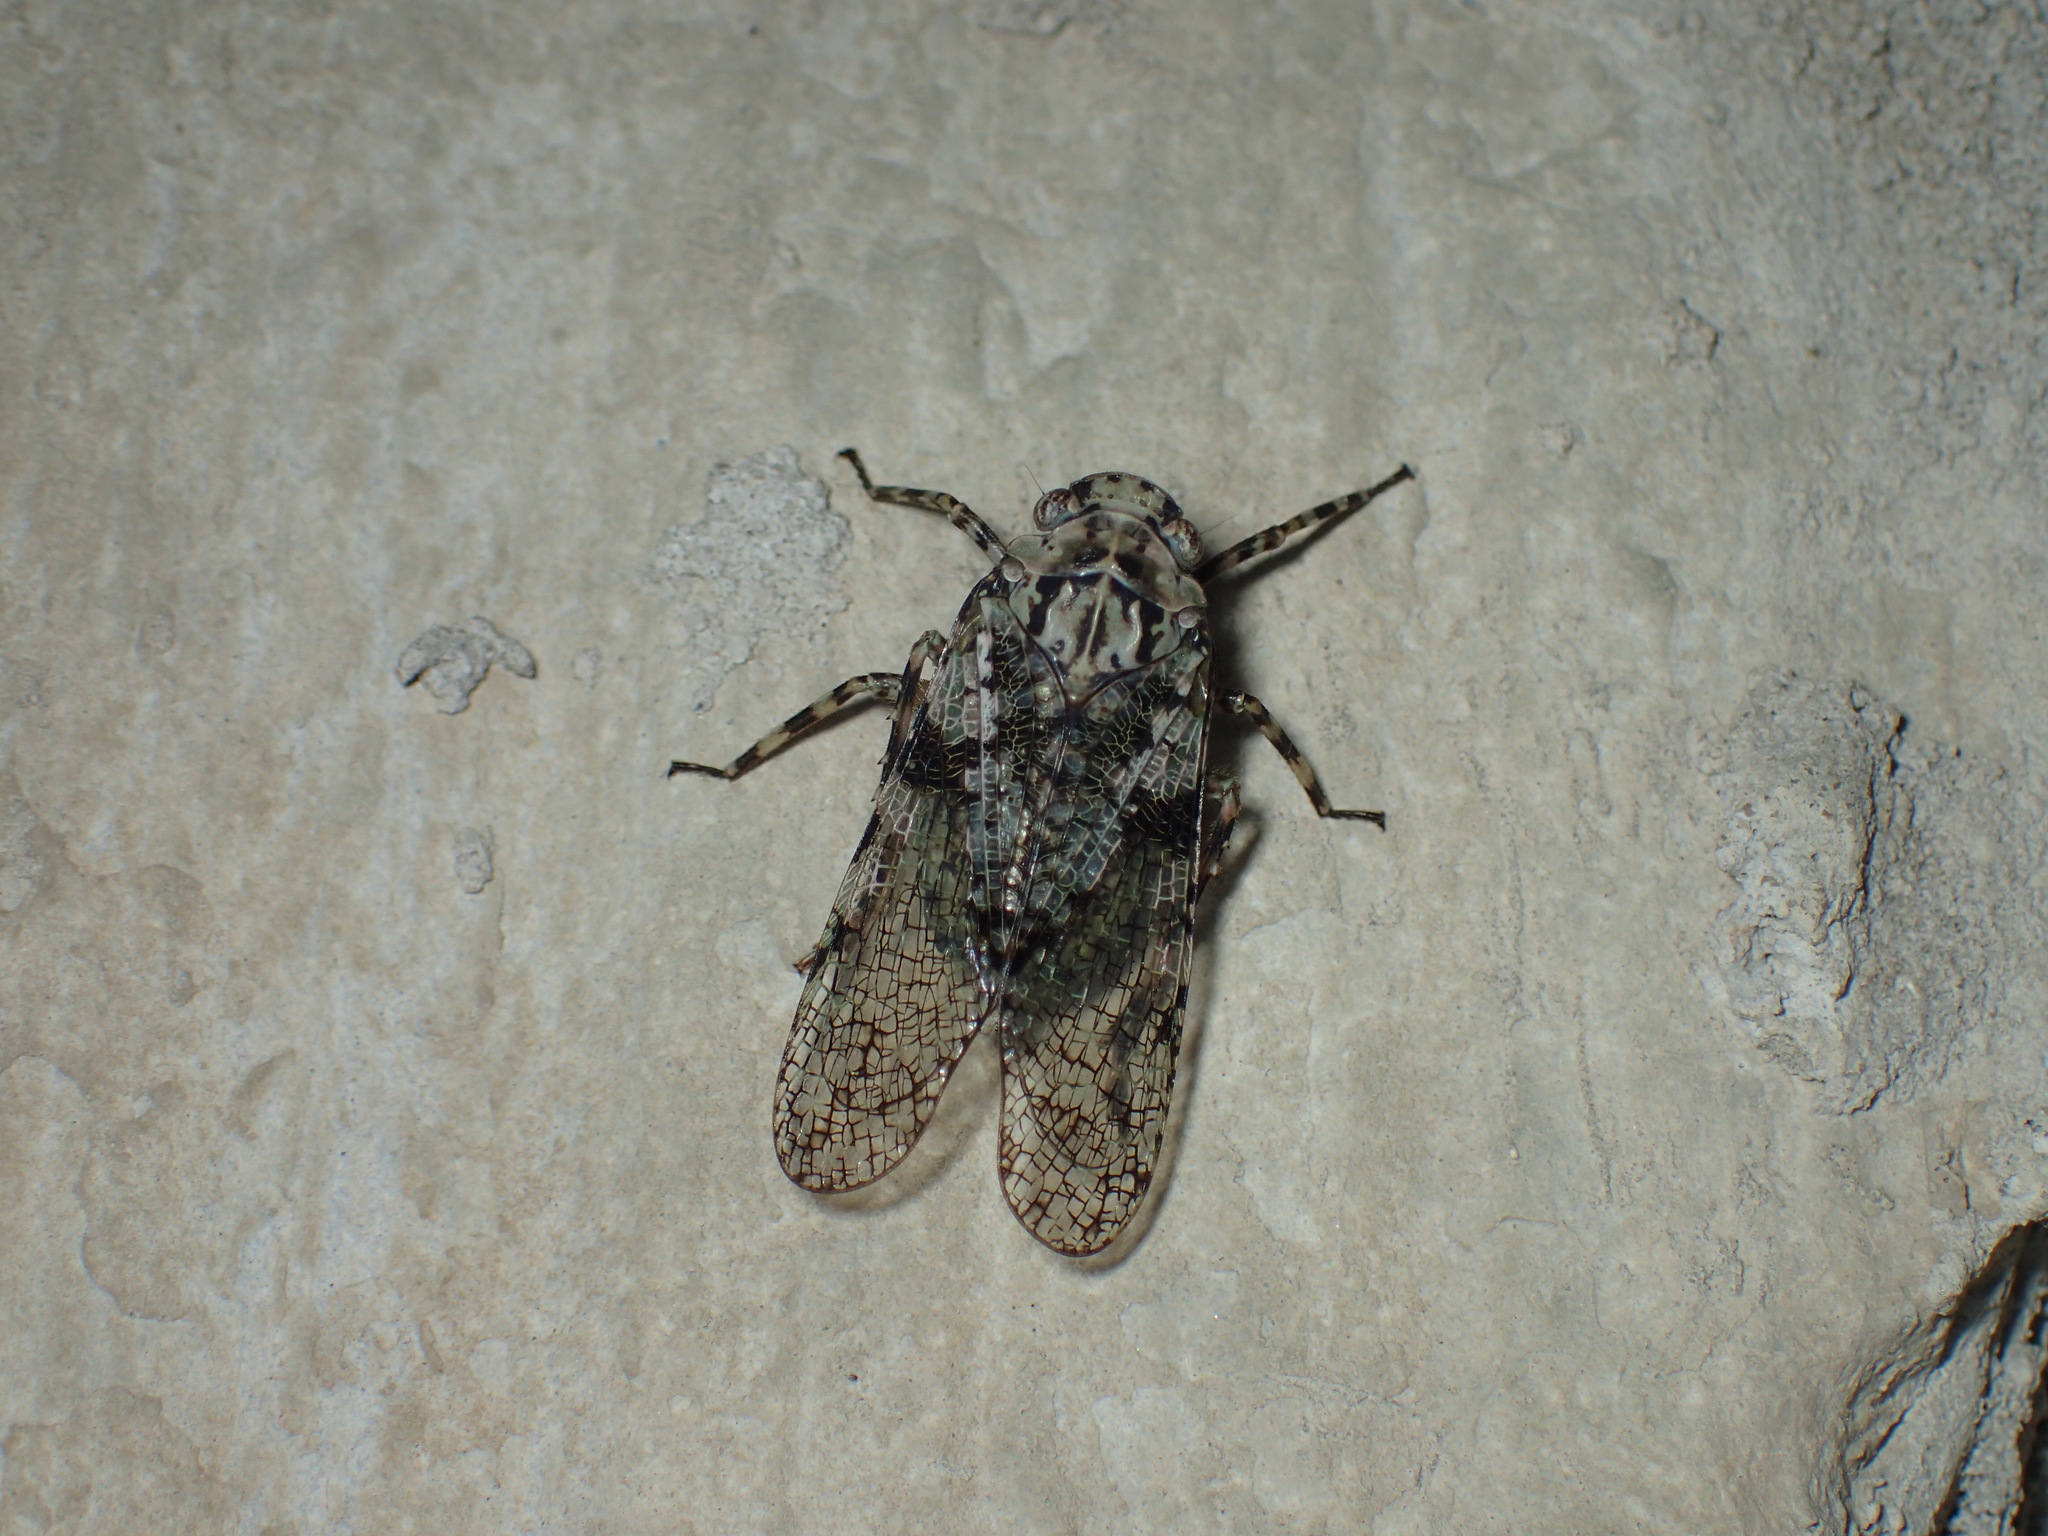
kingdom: Animalia
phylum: Arthropoda
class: Insecta
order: Hemiptera
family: Fulgoridae
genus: Calyptoproctus
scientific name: Calyptoproctus marmoratus
